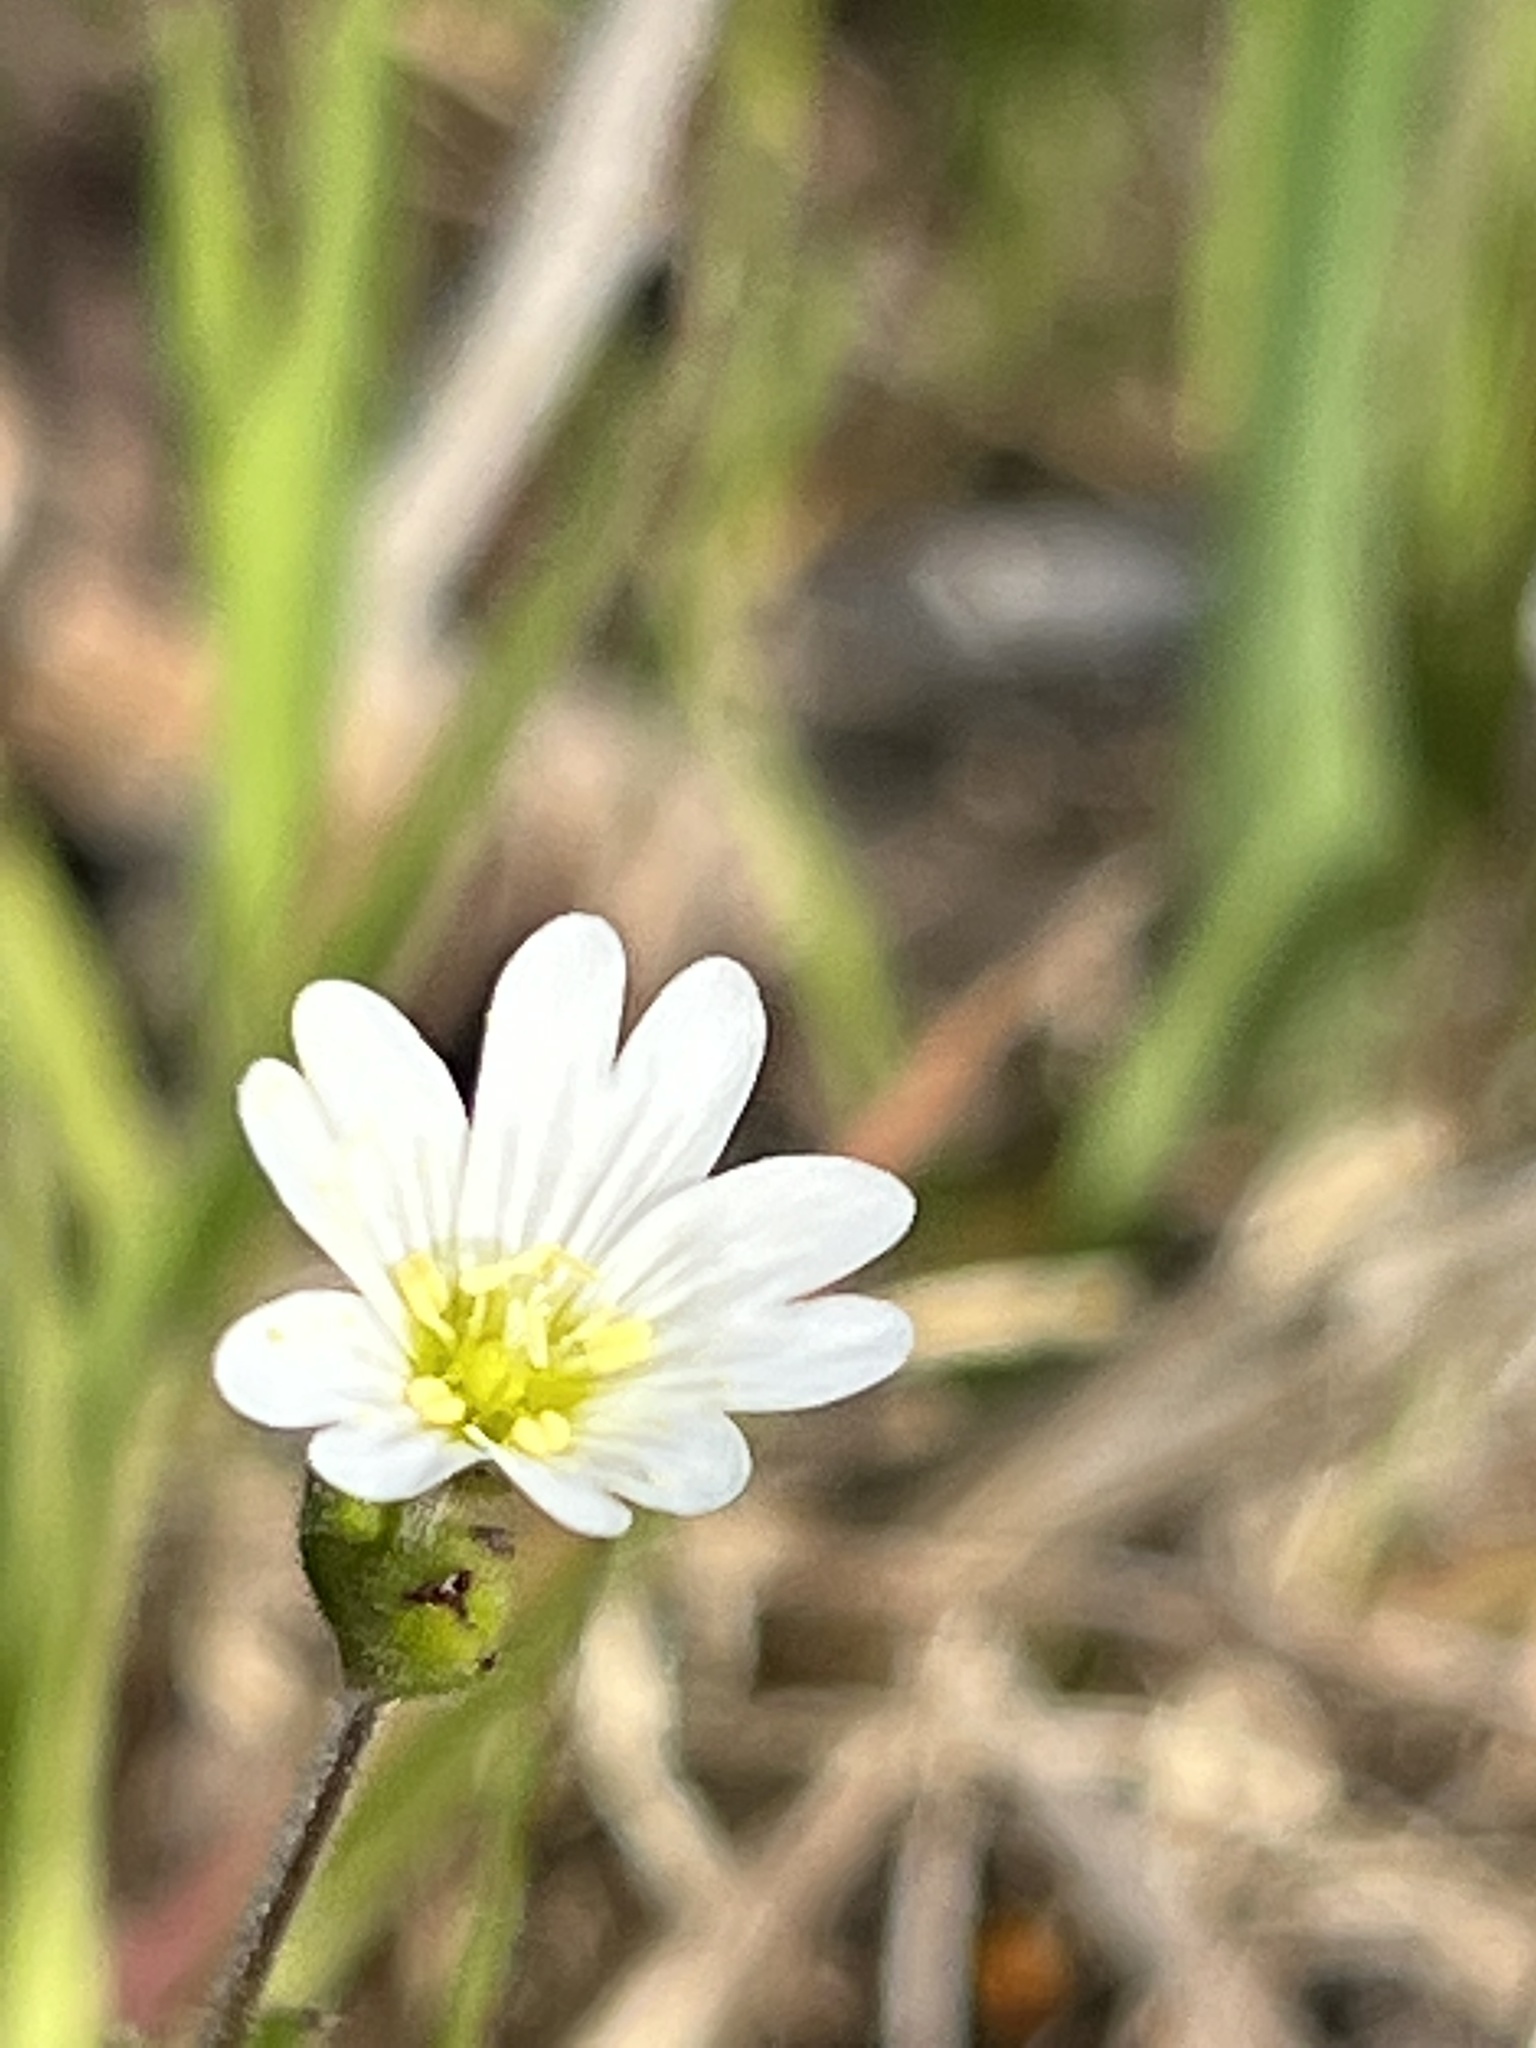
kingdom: Plantae
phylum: Tracheophyta
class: Magnoliopsida
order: Caryophyllales
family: Caryophyllaceae
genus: Rabelera
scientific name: Rabelera holostea
